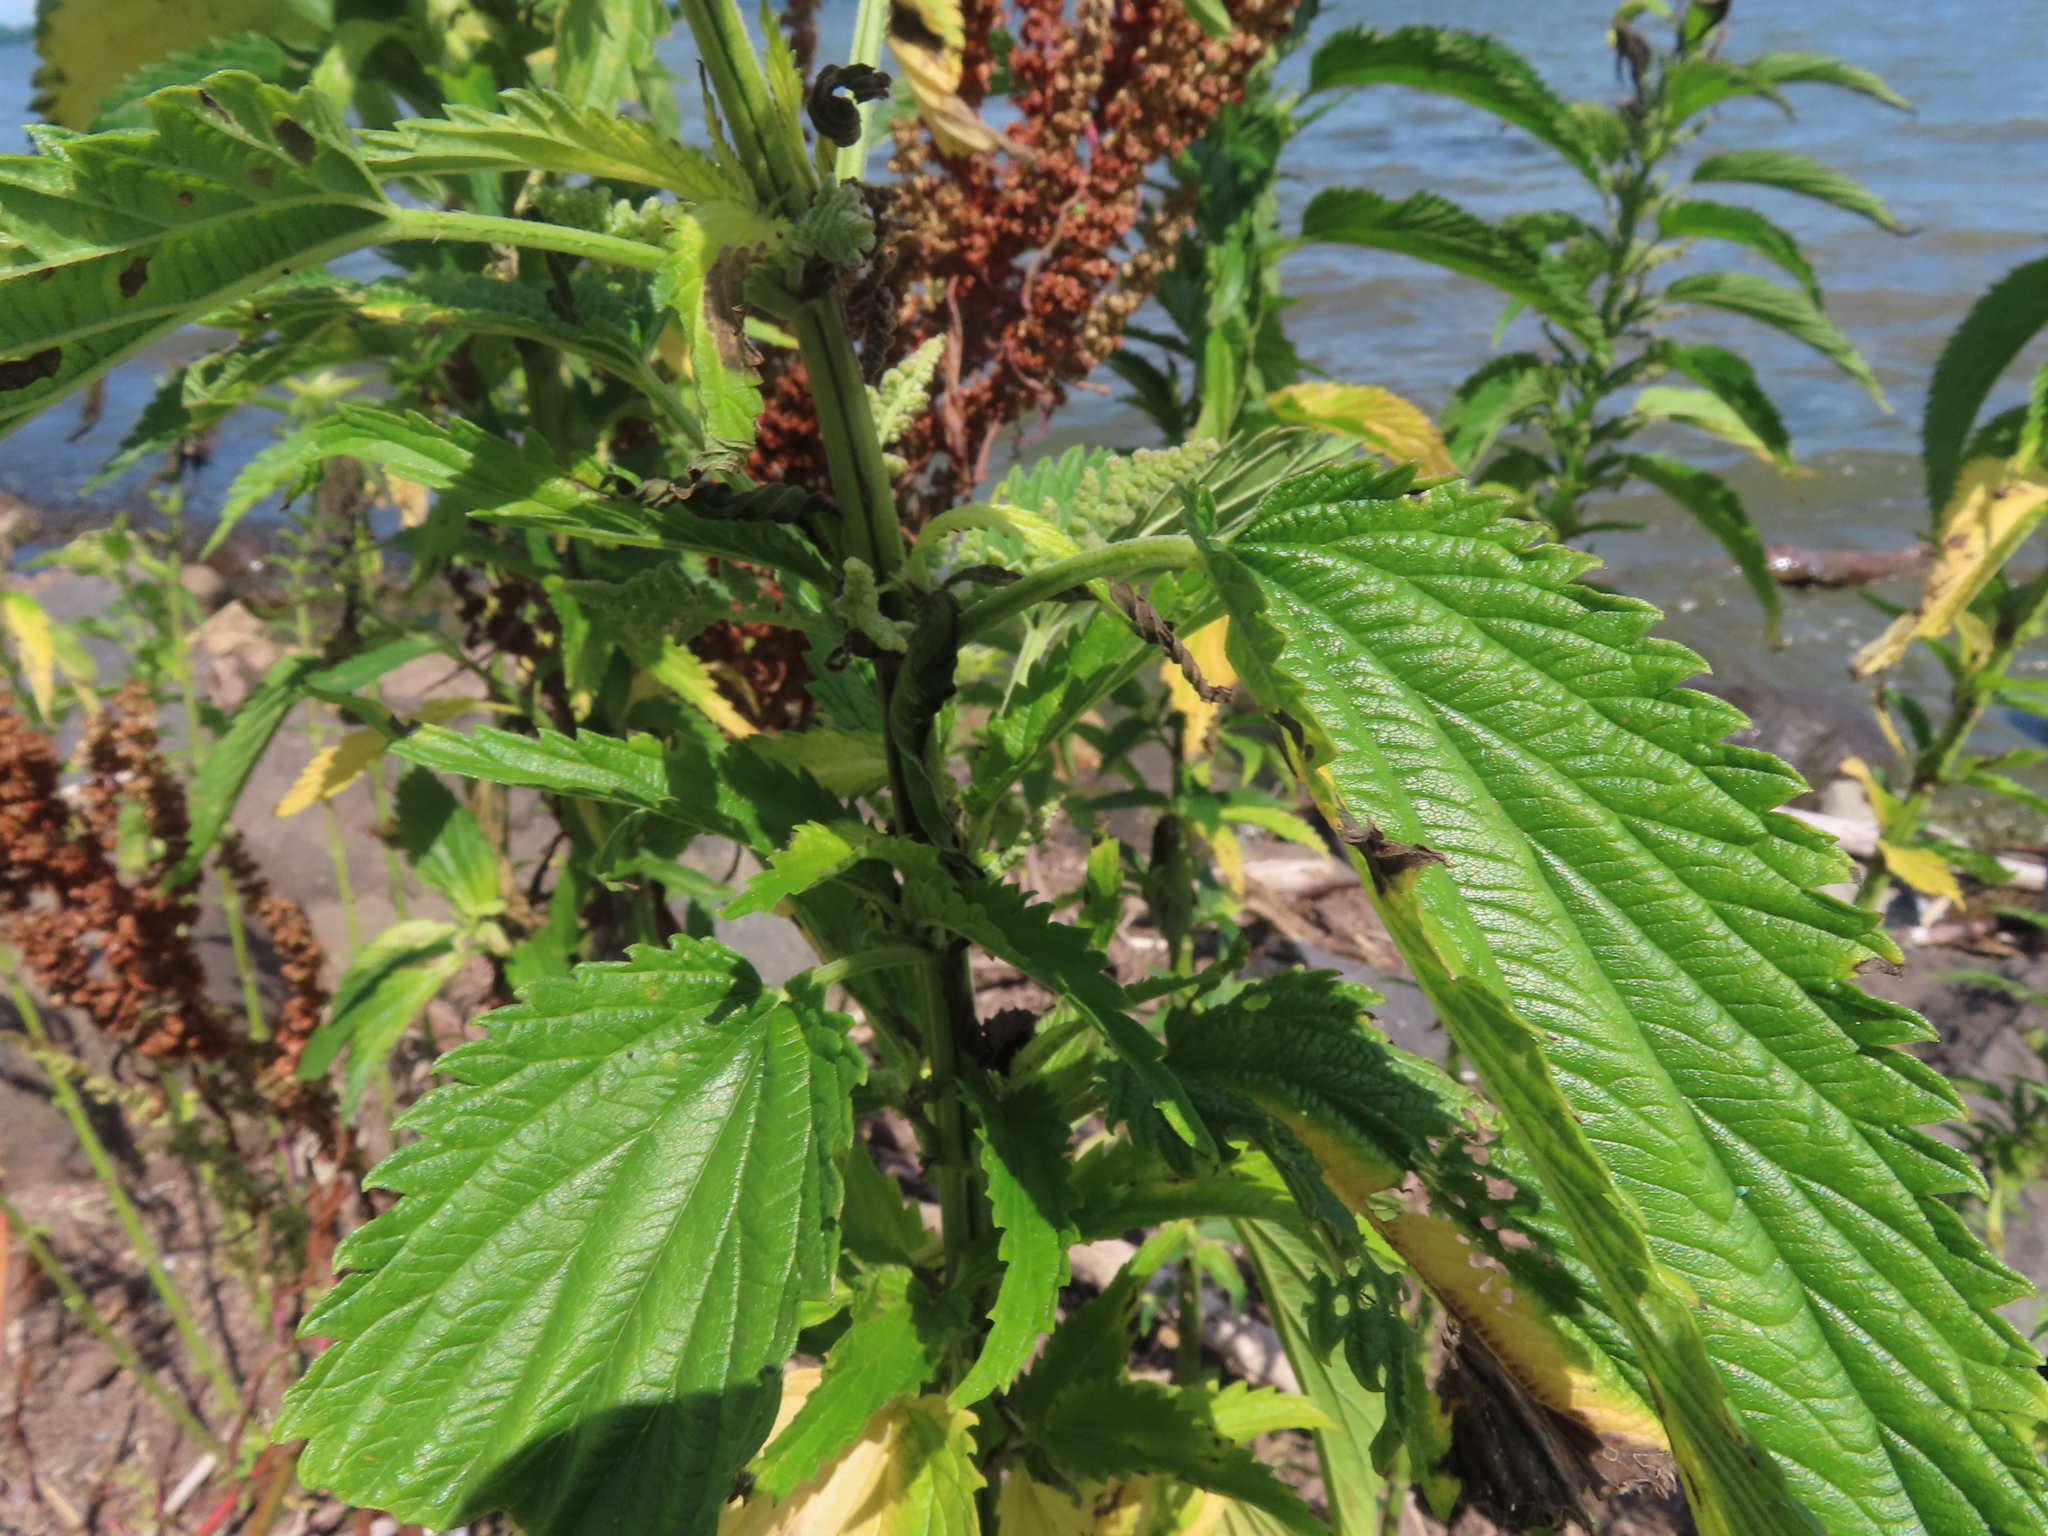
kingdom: Plantae
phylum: Tracheophyta
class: Magnoliopsida
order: Rosales
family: Urticaceae
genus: Urtica
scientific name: Urtica gracilis
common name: Slender stinging nettle
